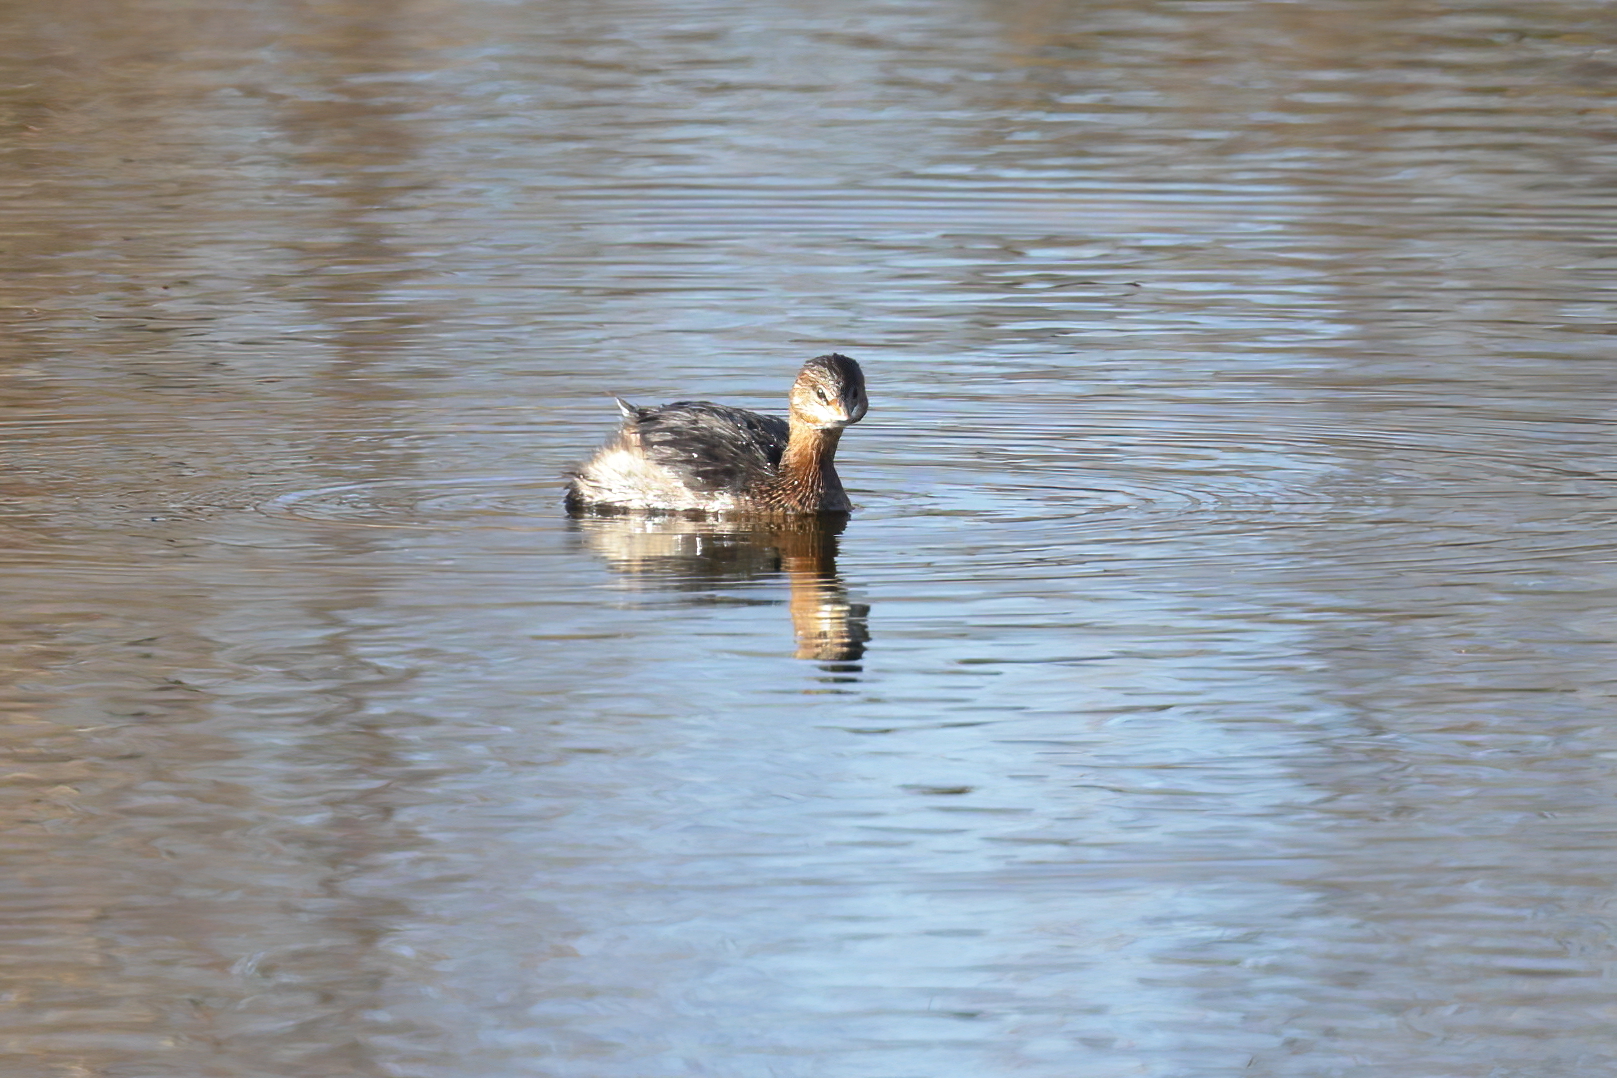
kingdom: Animalia
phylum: Chordata
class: Aves
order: Podicipediformes
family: Podicipedidae
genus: Podilymbus
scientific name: Podilymbus podiceps
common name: Pied-billed grebe
